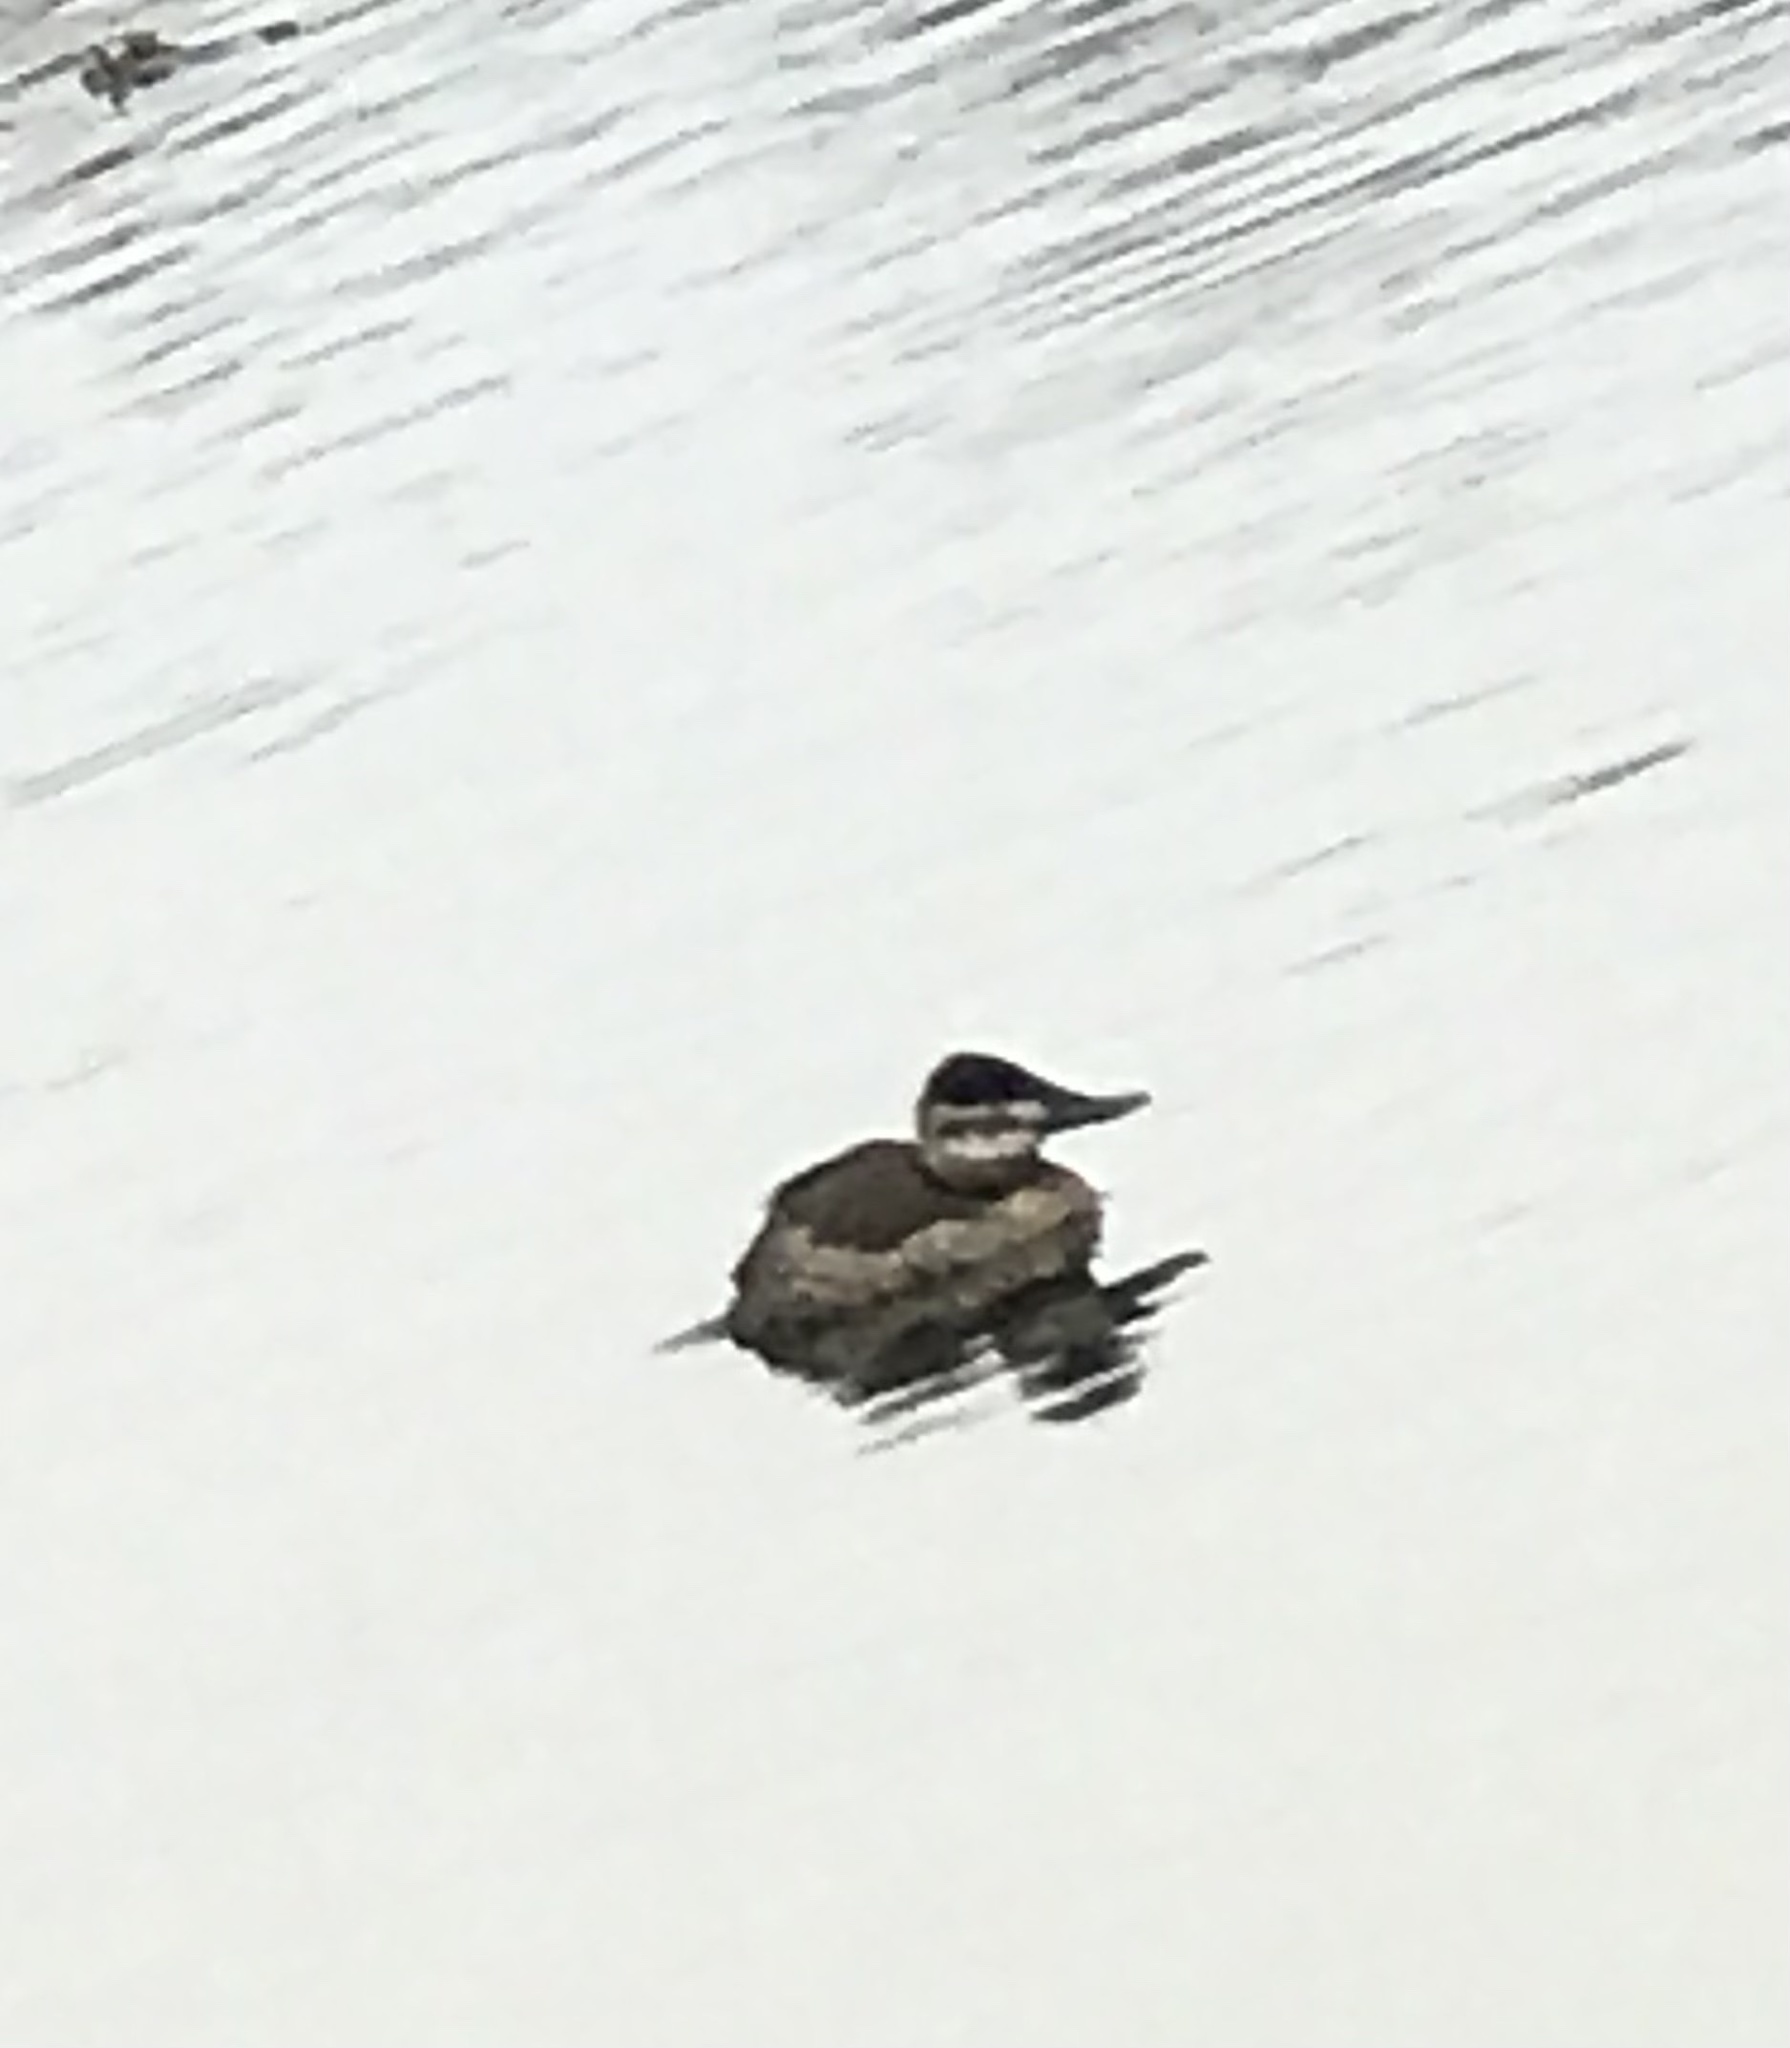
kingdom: Animalia
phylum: Chordata
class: Aves
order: Anseriformes
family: Anatidae
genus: Oxyura
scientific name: Oxyura jamaicensis
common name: Ruddy duck
